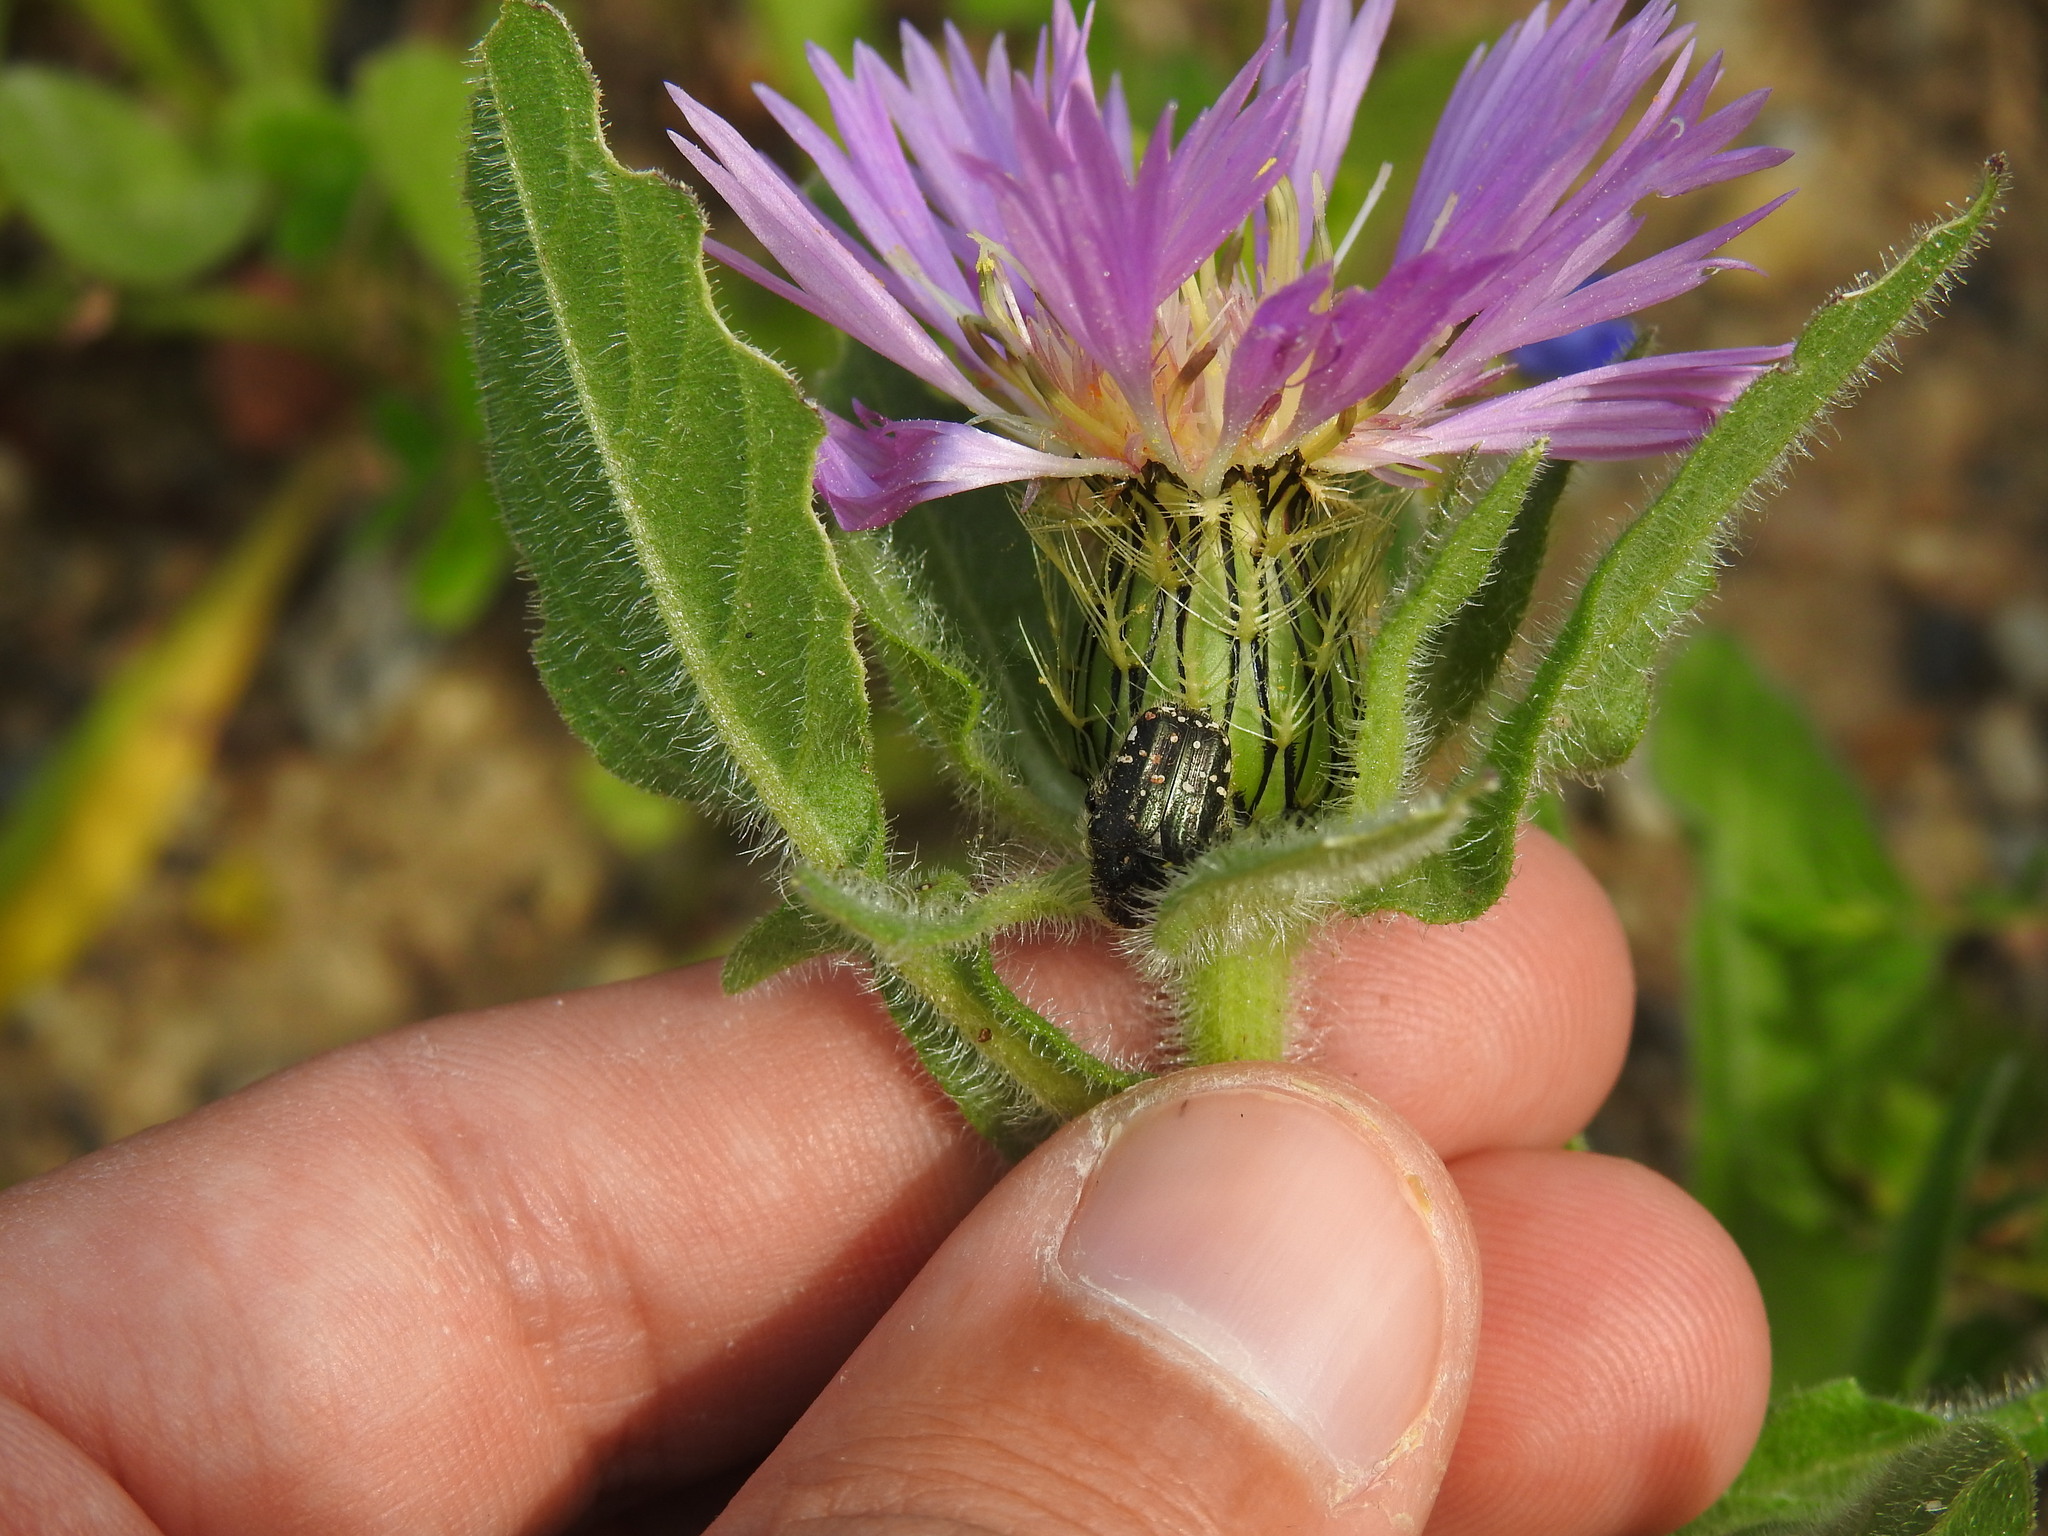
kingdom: Plantae
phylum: Tracheophyta
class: Magnoliopsida
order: Asterales
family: Asteraceae
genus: Centaurea
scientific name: Centaurea pullata
